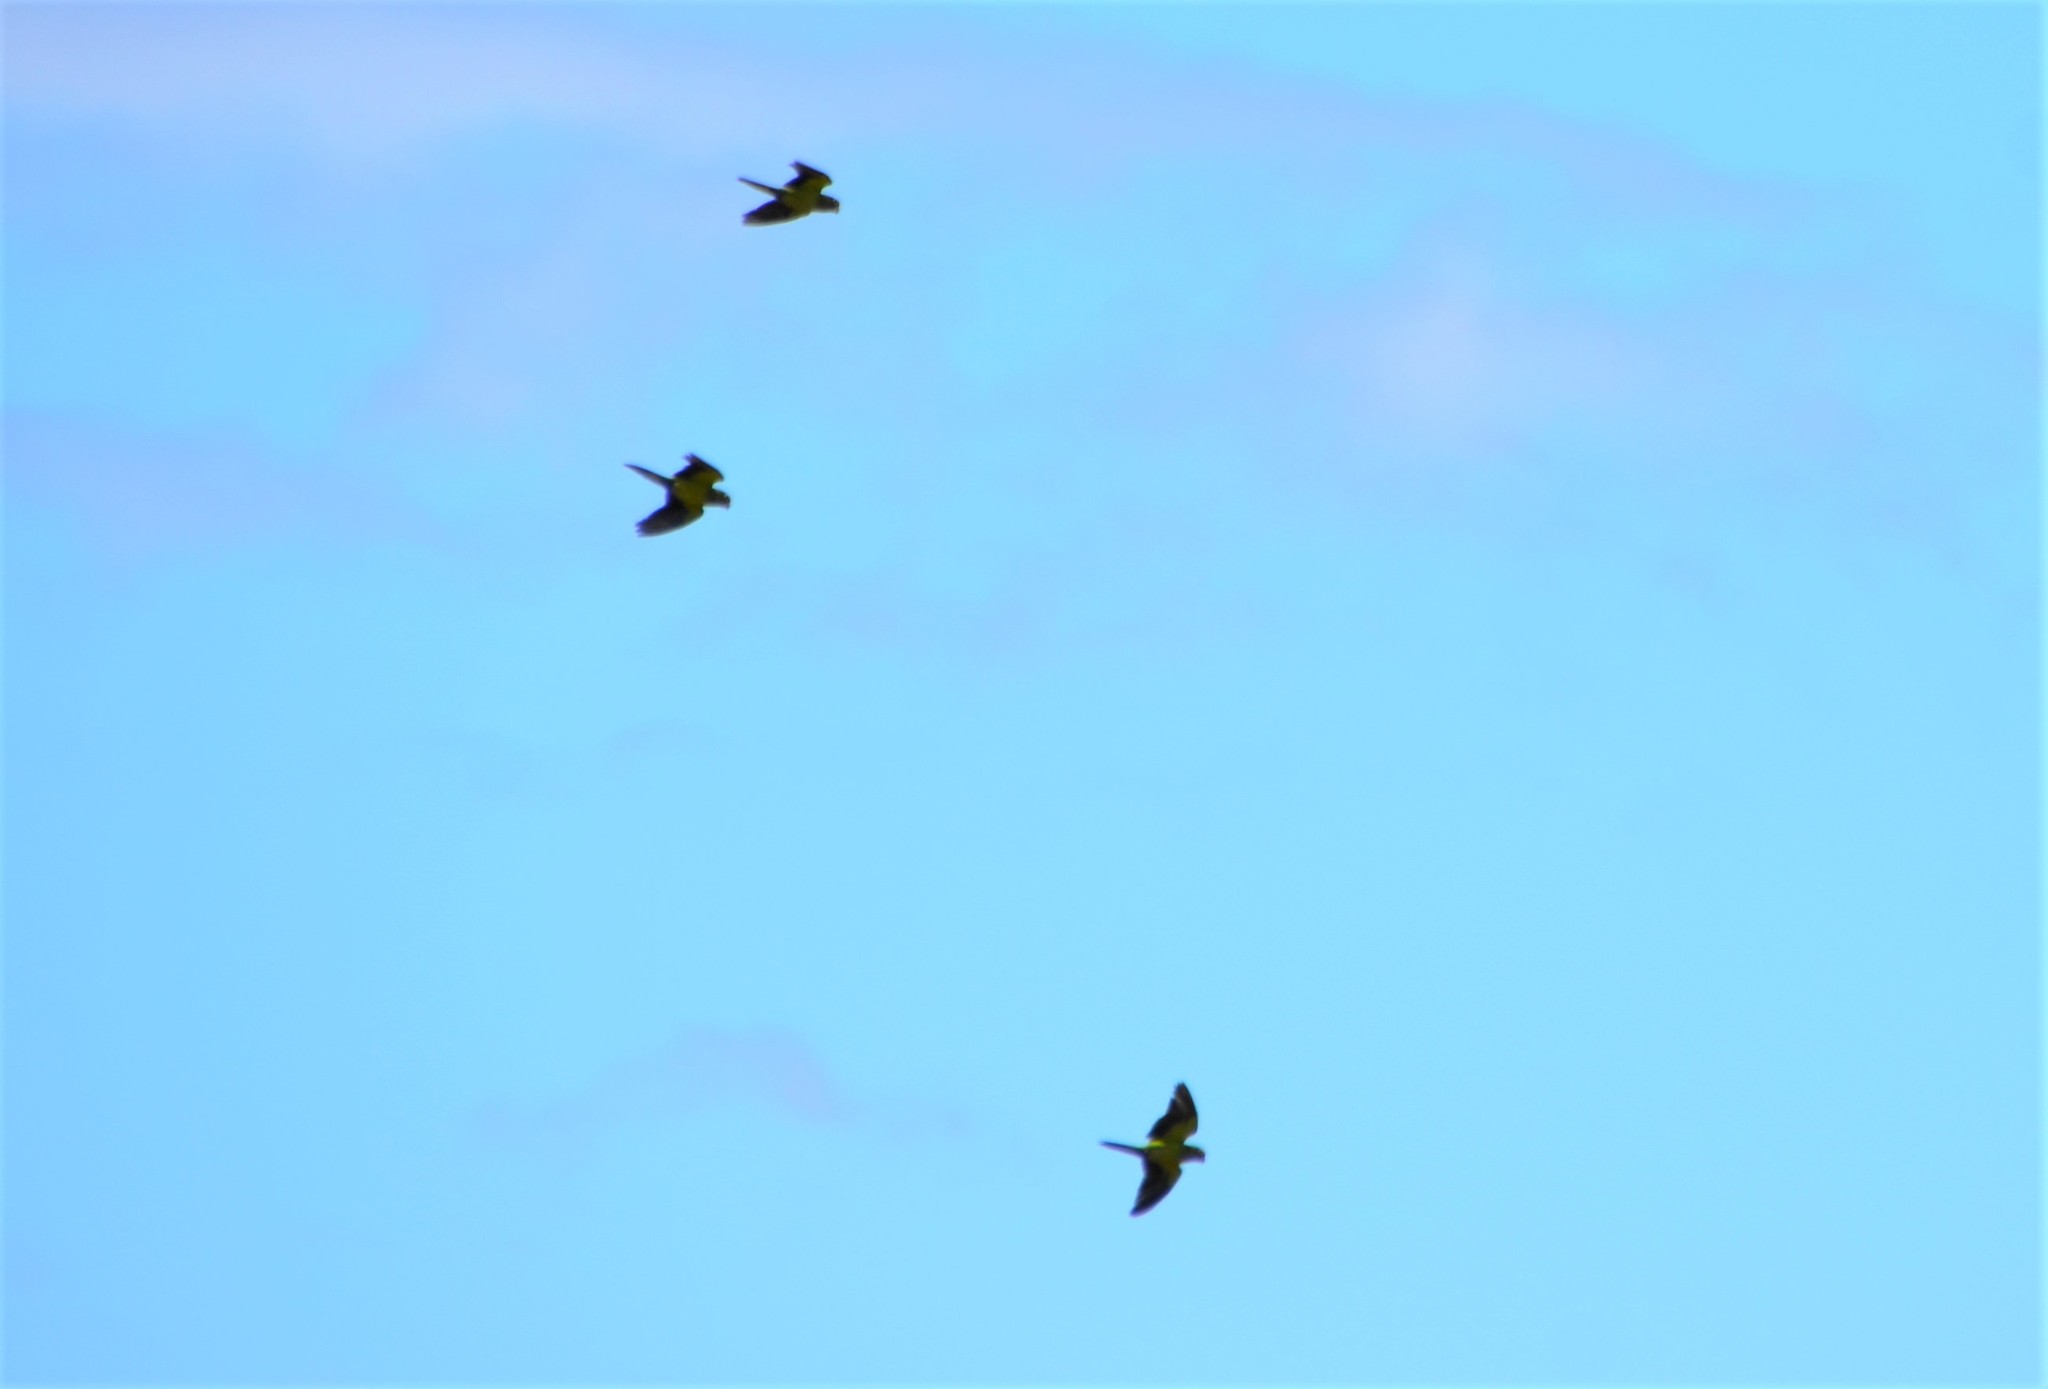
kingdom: Animalia
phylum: Chordata
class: Aves
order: Psittaciformes
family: Psittacidae
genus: Aratinga
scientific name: Aratinga nana
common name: Olive-throated parakeet
